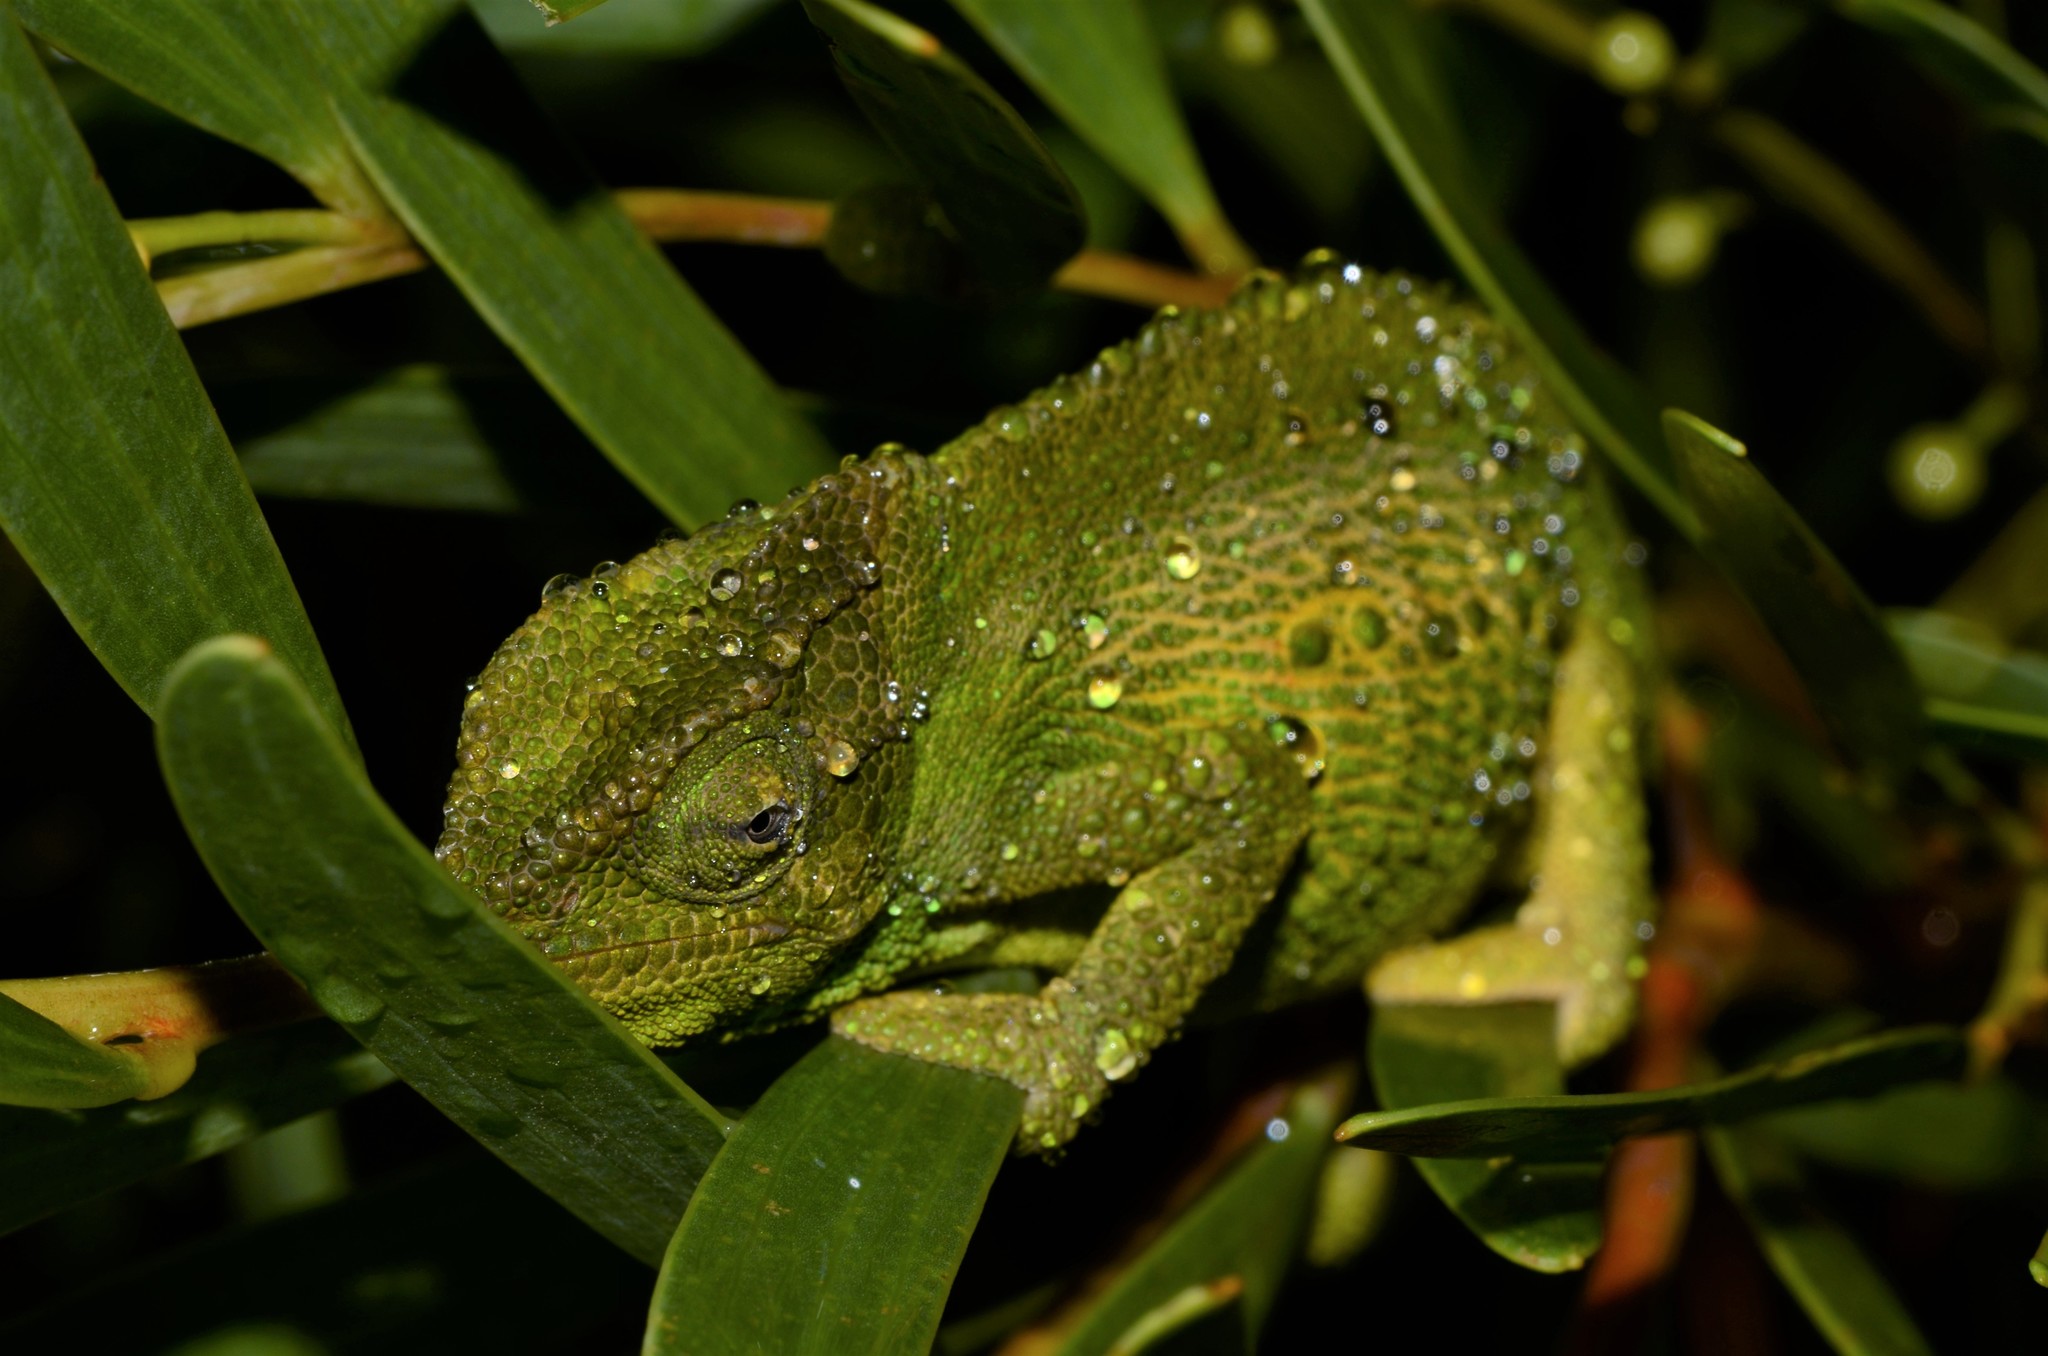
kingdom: Animalia
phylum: Chordata
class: Squamata
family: Chamaeleonidae
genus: Bradypodion
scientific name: Bradypodion pumilum
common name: Cape dwarf chameleon
